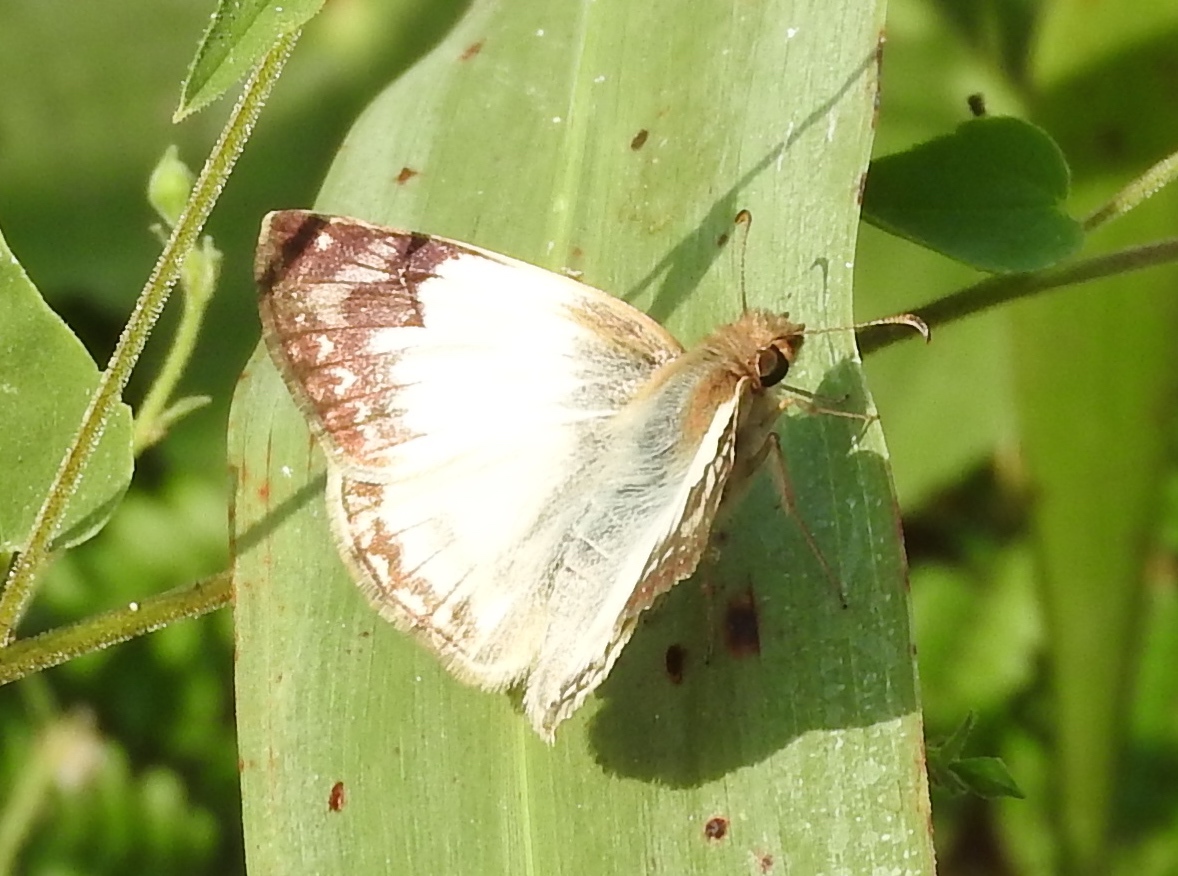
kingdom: Animalia
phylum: Arthropoda
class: Insecta
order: Lepidoptera
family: Hesperiidae
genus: Heliopetes
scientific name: Heliopetes laviana
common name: Laviana white-skipper
